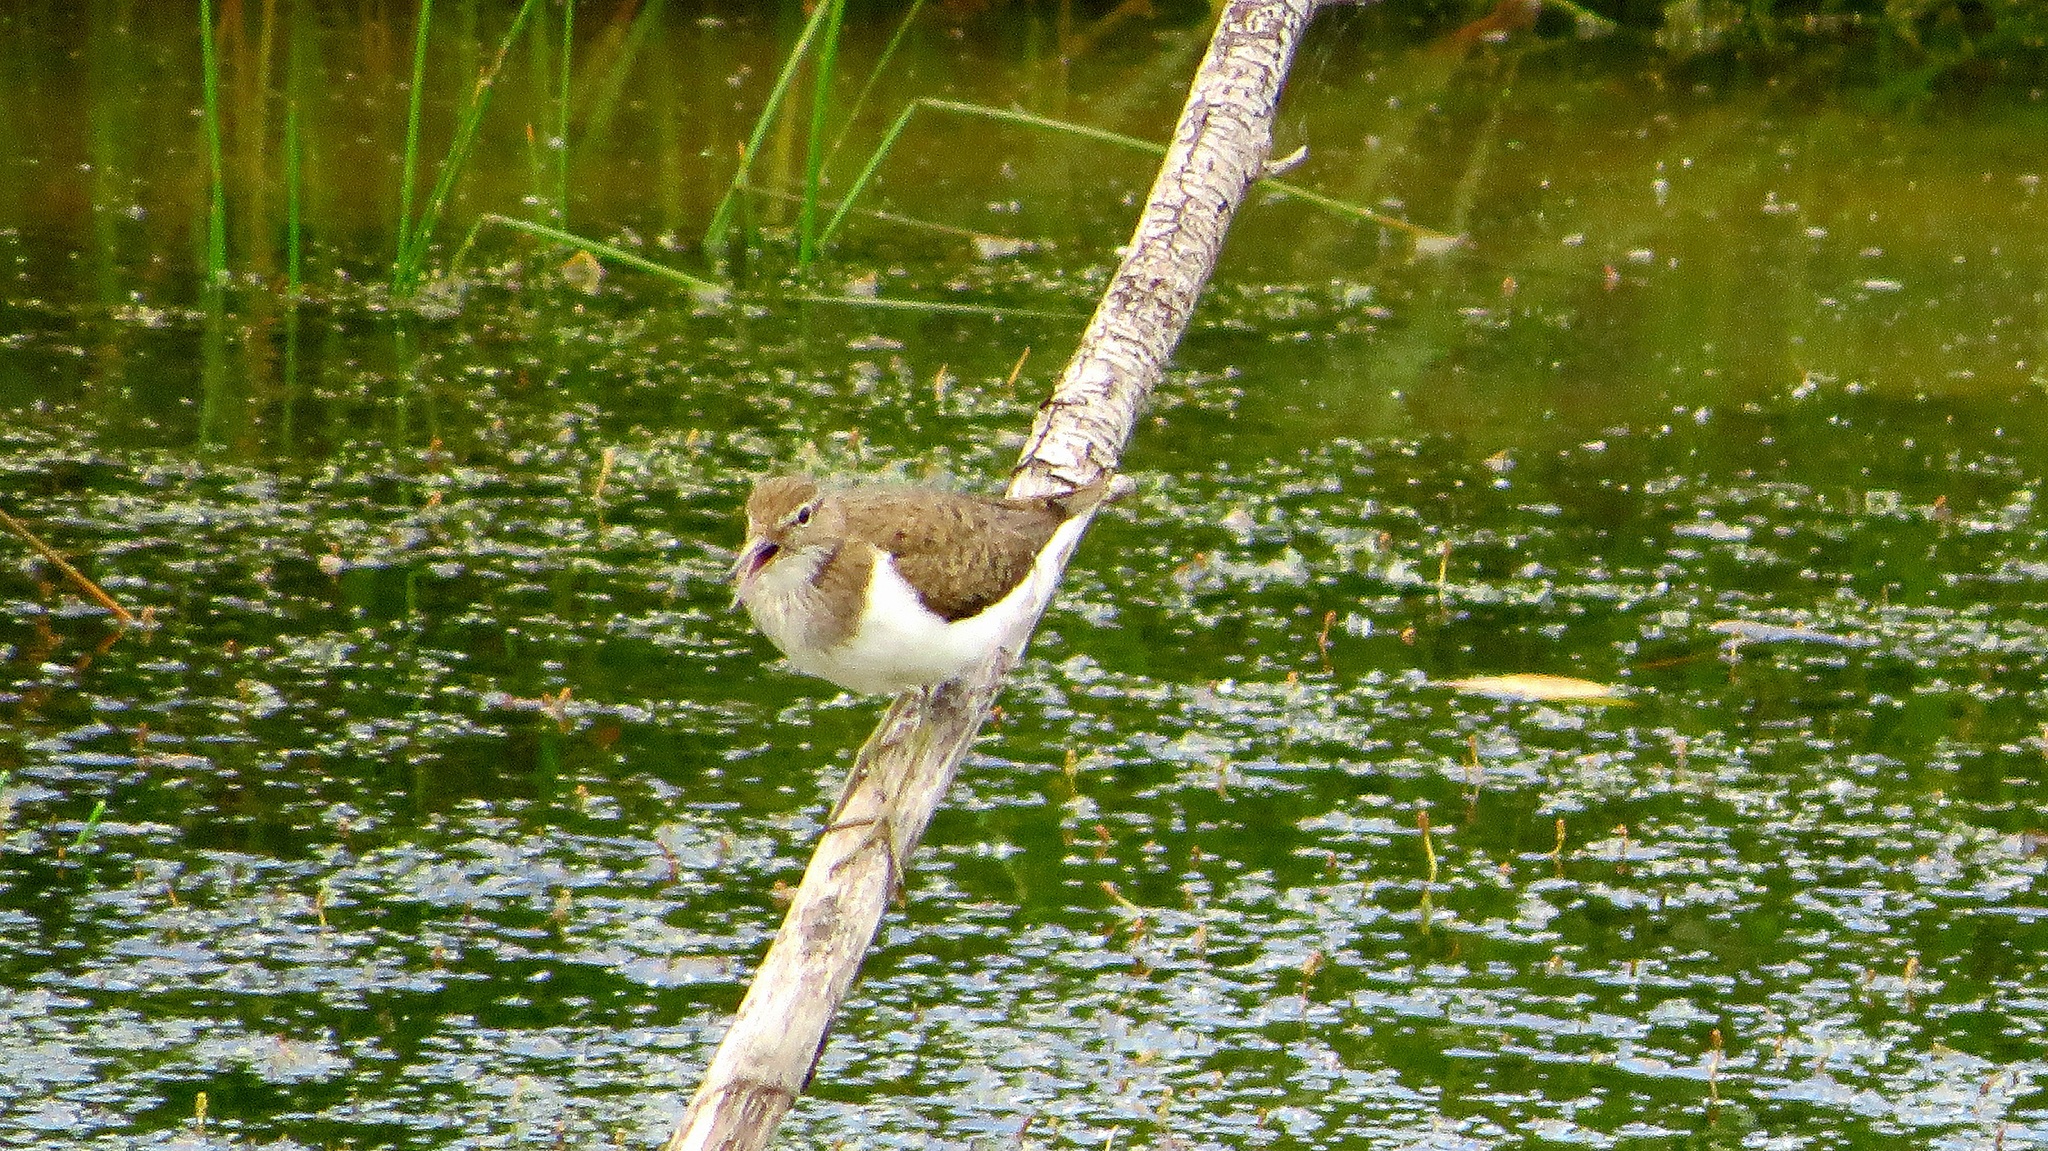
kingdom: Animalia
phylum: Chordata
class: Aves
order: Charadriiformes
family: Scolopacidae
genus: Actitis
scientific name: Actitis hypoleucos
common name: Common sandpiper
